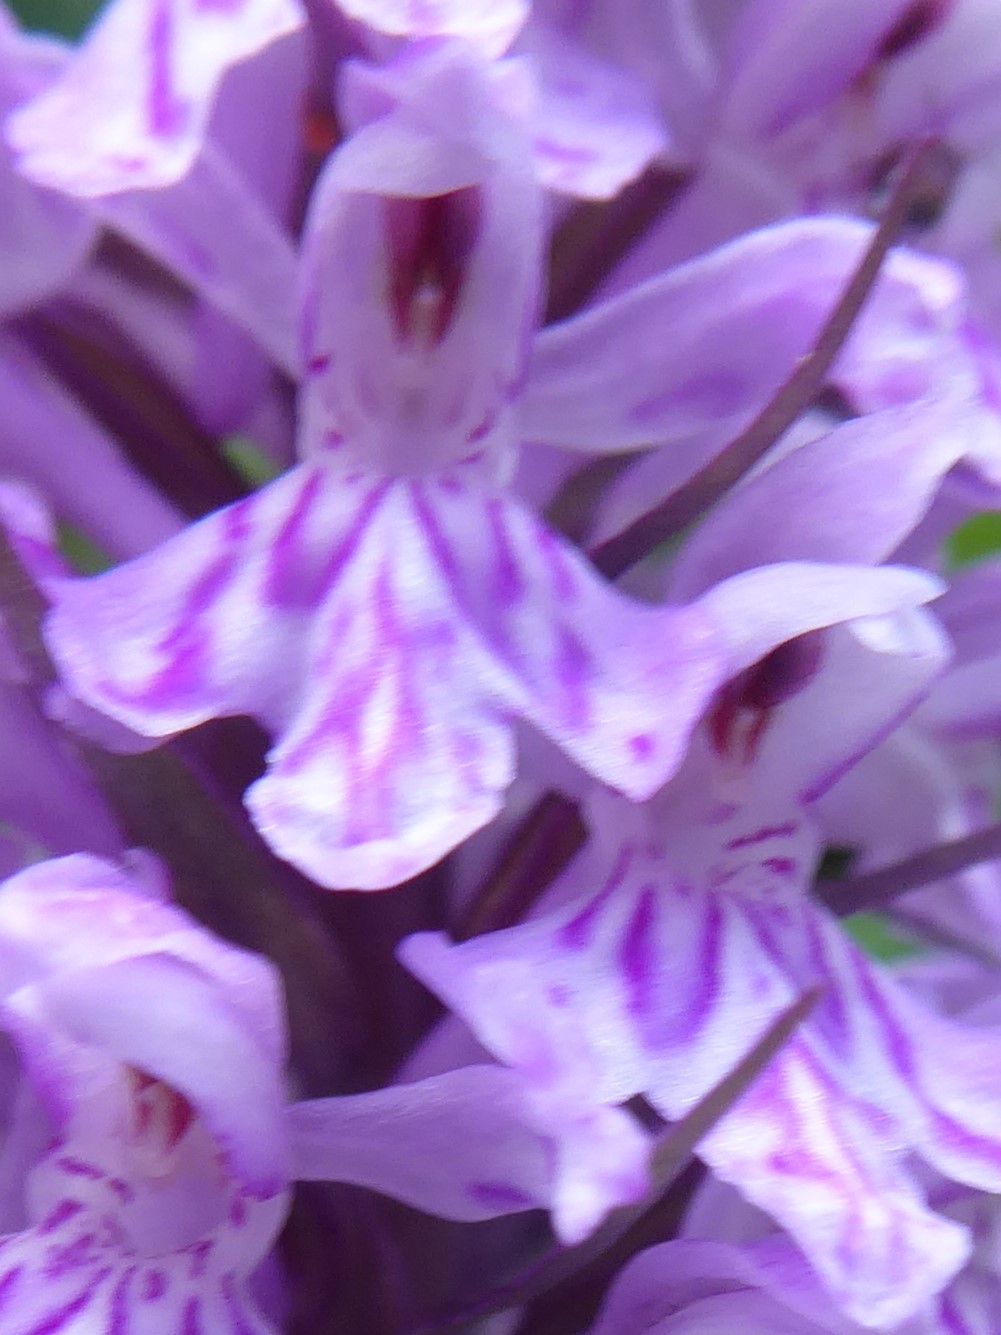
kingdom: Plantae
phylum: Tracheophyta
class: Liliopsida
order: Asparagales
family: Orchidaceae
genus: Dactylorhiza
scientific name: Dactylorhiza maculata
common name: Heath spotted-orchid
